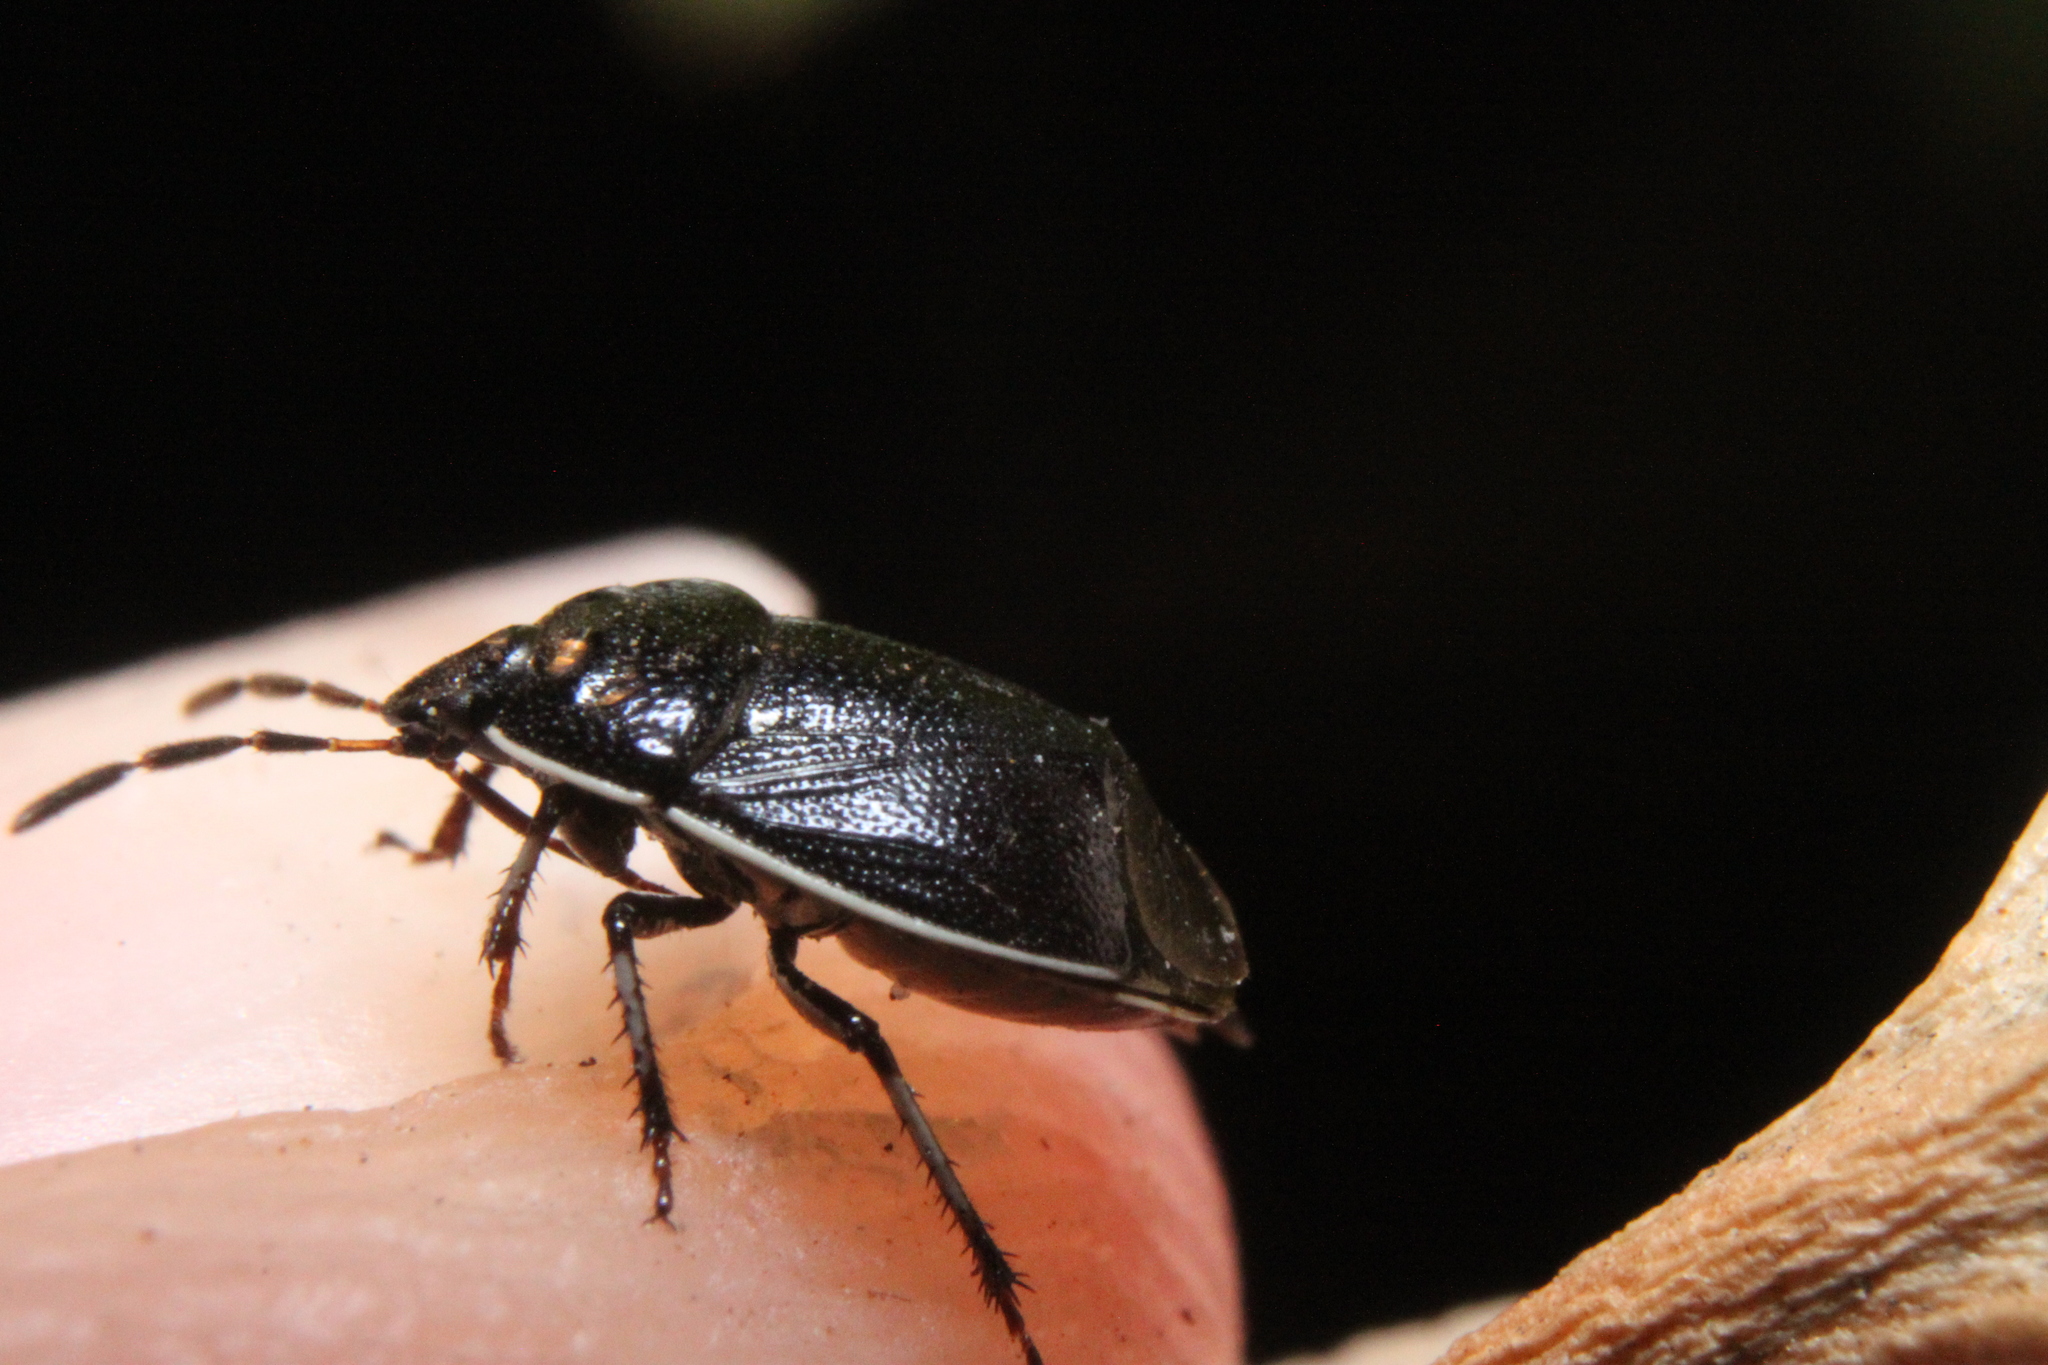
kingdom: Animalia
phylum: Arthropoda
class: Insecta
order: Hemiptera
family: Cydnidae
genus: Sehirus
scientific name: Sehirus cinctus
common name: White-margined burrower bug
